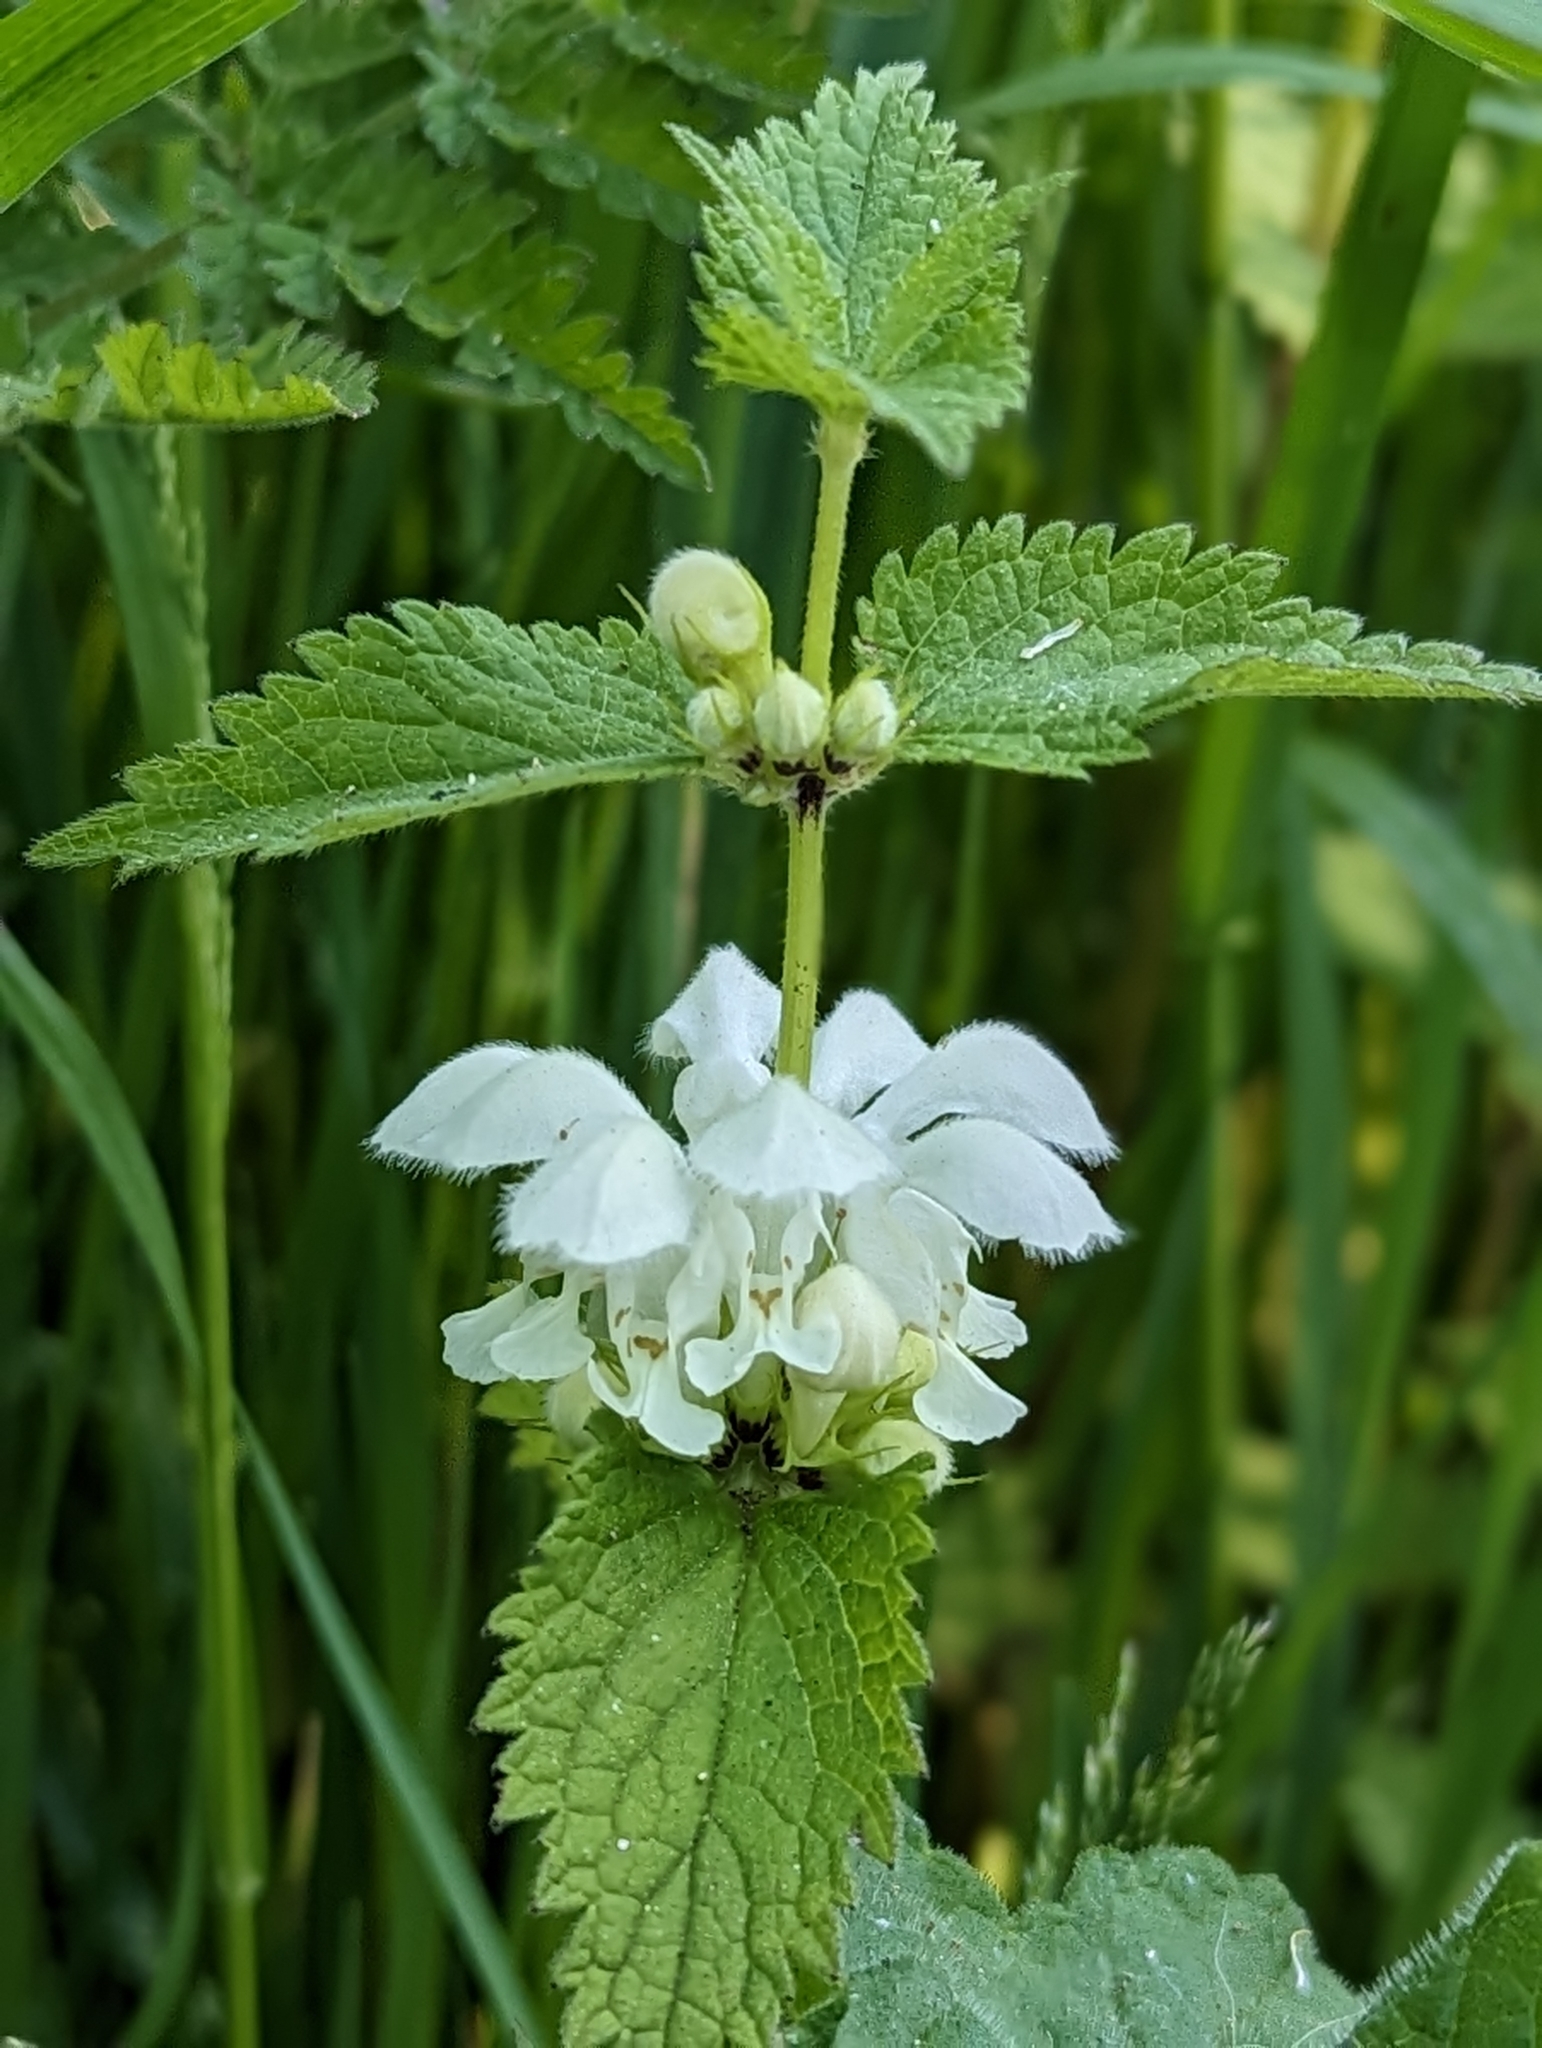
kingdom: Plantae
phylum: Tracheophyta
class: Magnoliopsida
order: Lamiales
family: Lamiaceae
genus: Lamium
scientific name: Lamium album
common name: White dead-nettle
